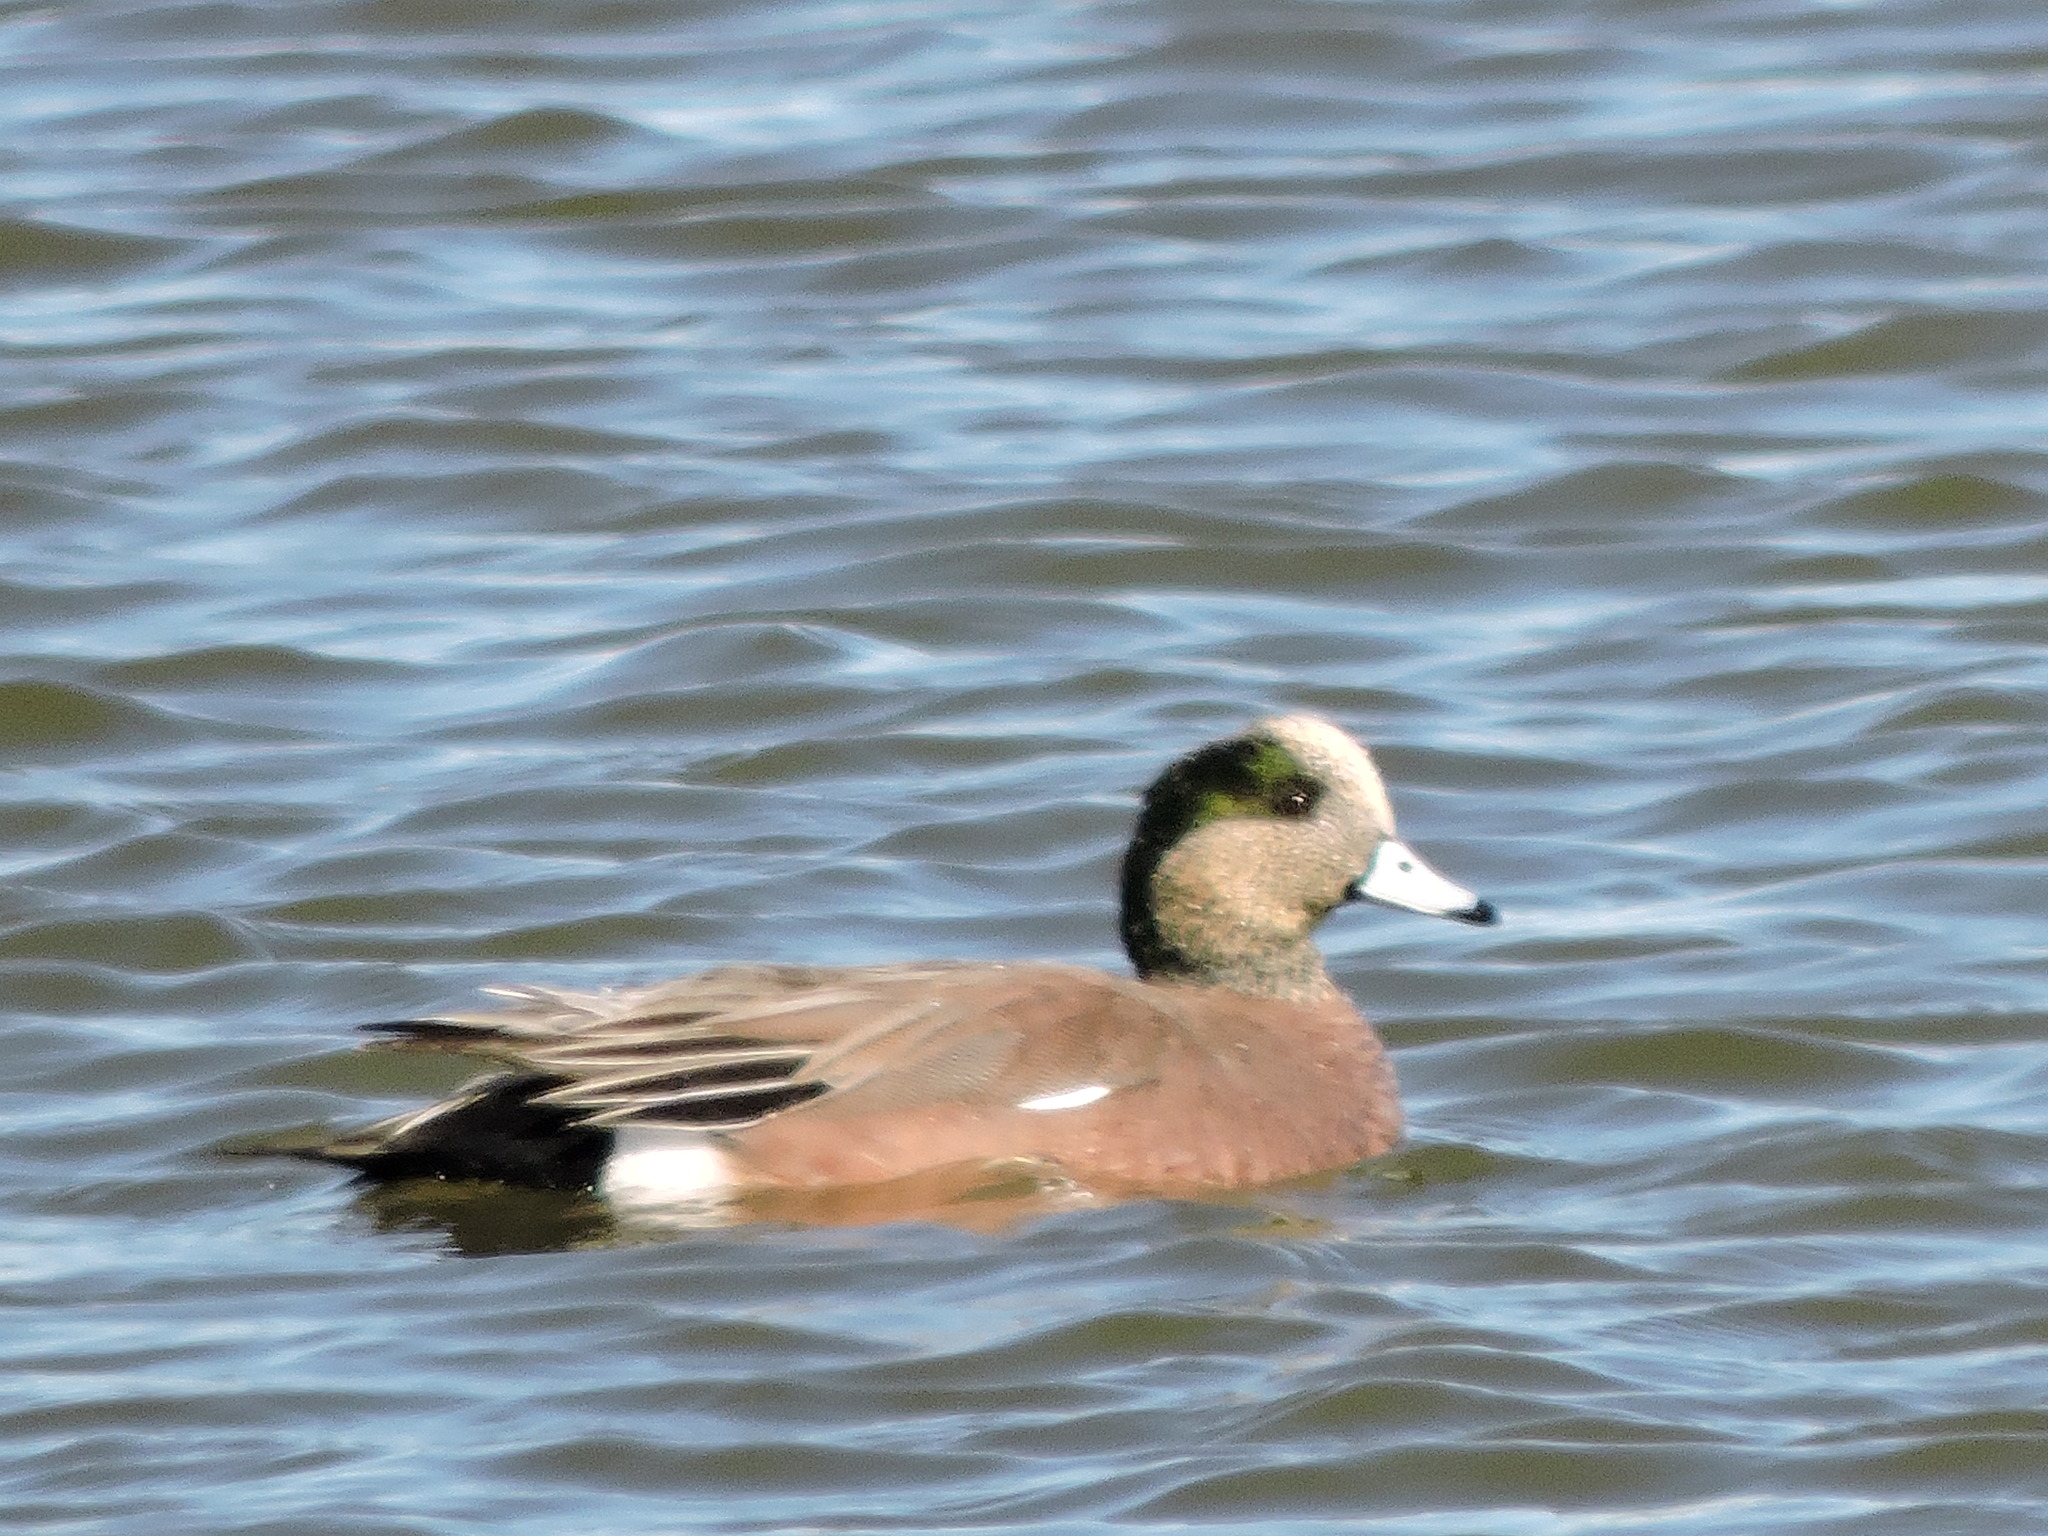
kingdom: Animalia
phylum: Chordata
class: Aves
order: Anseriformes
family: Anatidae
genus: Mareca
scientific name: Mareca americana
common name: American wigeon
